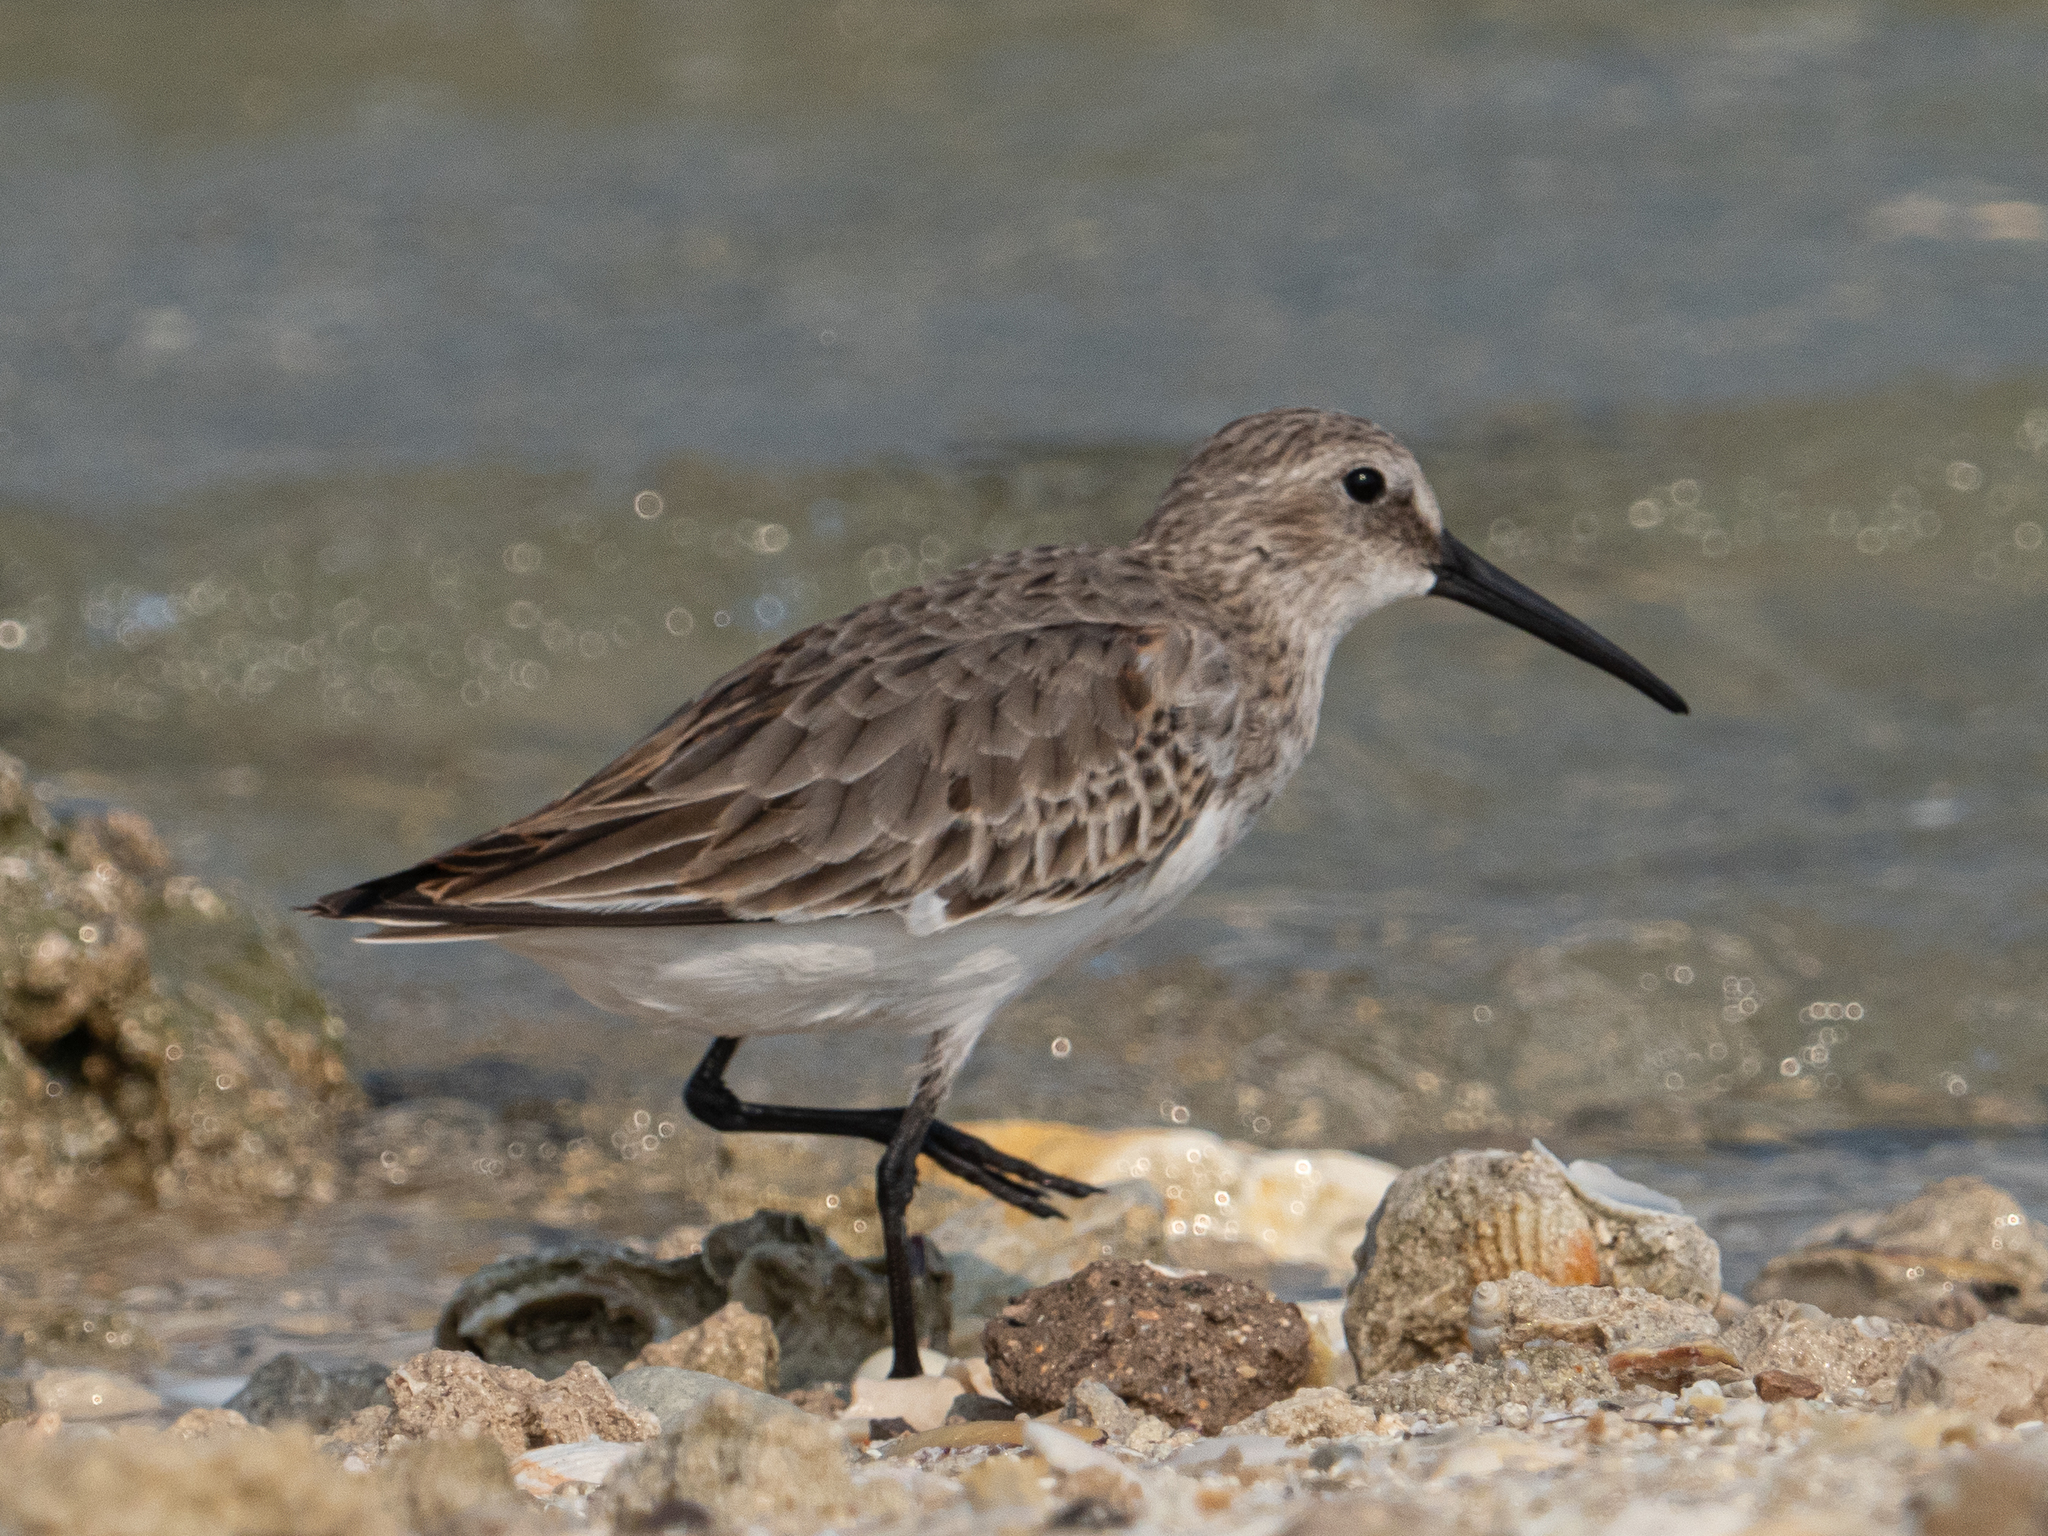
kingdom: Animalia
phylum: Chordata
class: Aves
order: Charadriiformes
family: Scolopacidae
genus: Calidris
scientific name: Calidris alpina
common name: Dunlin
